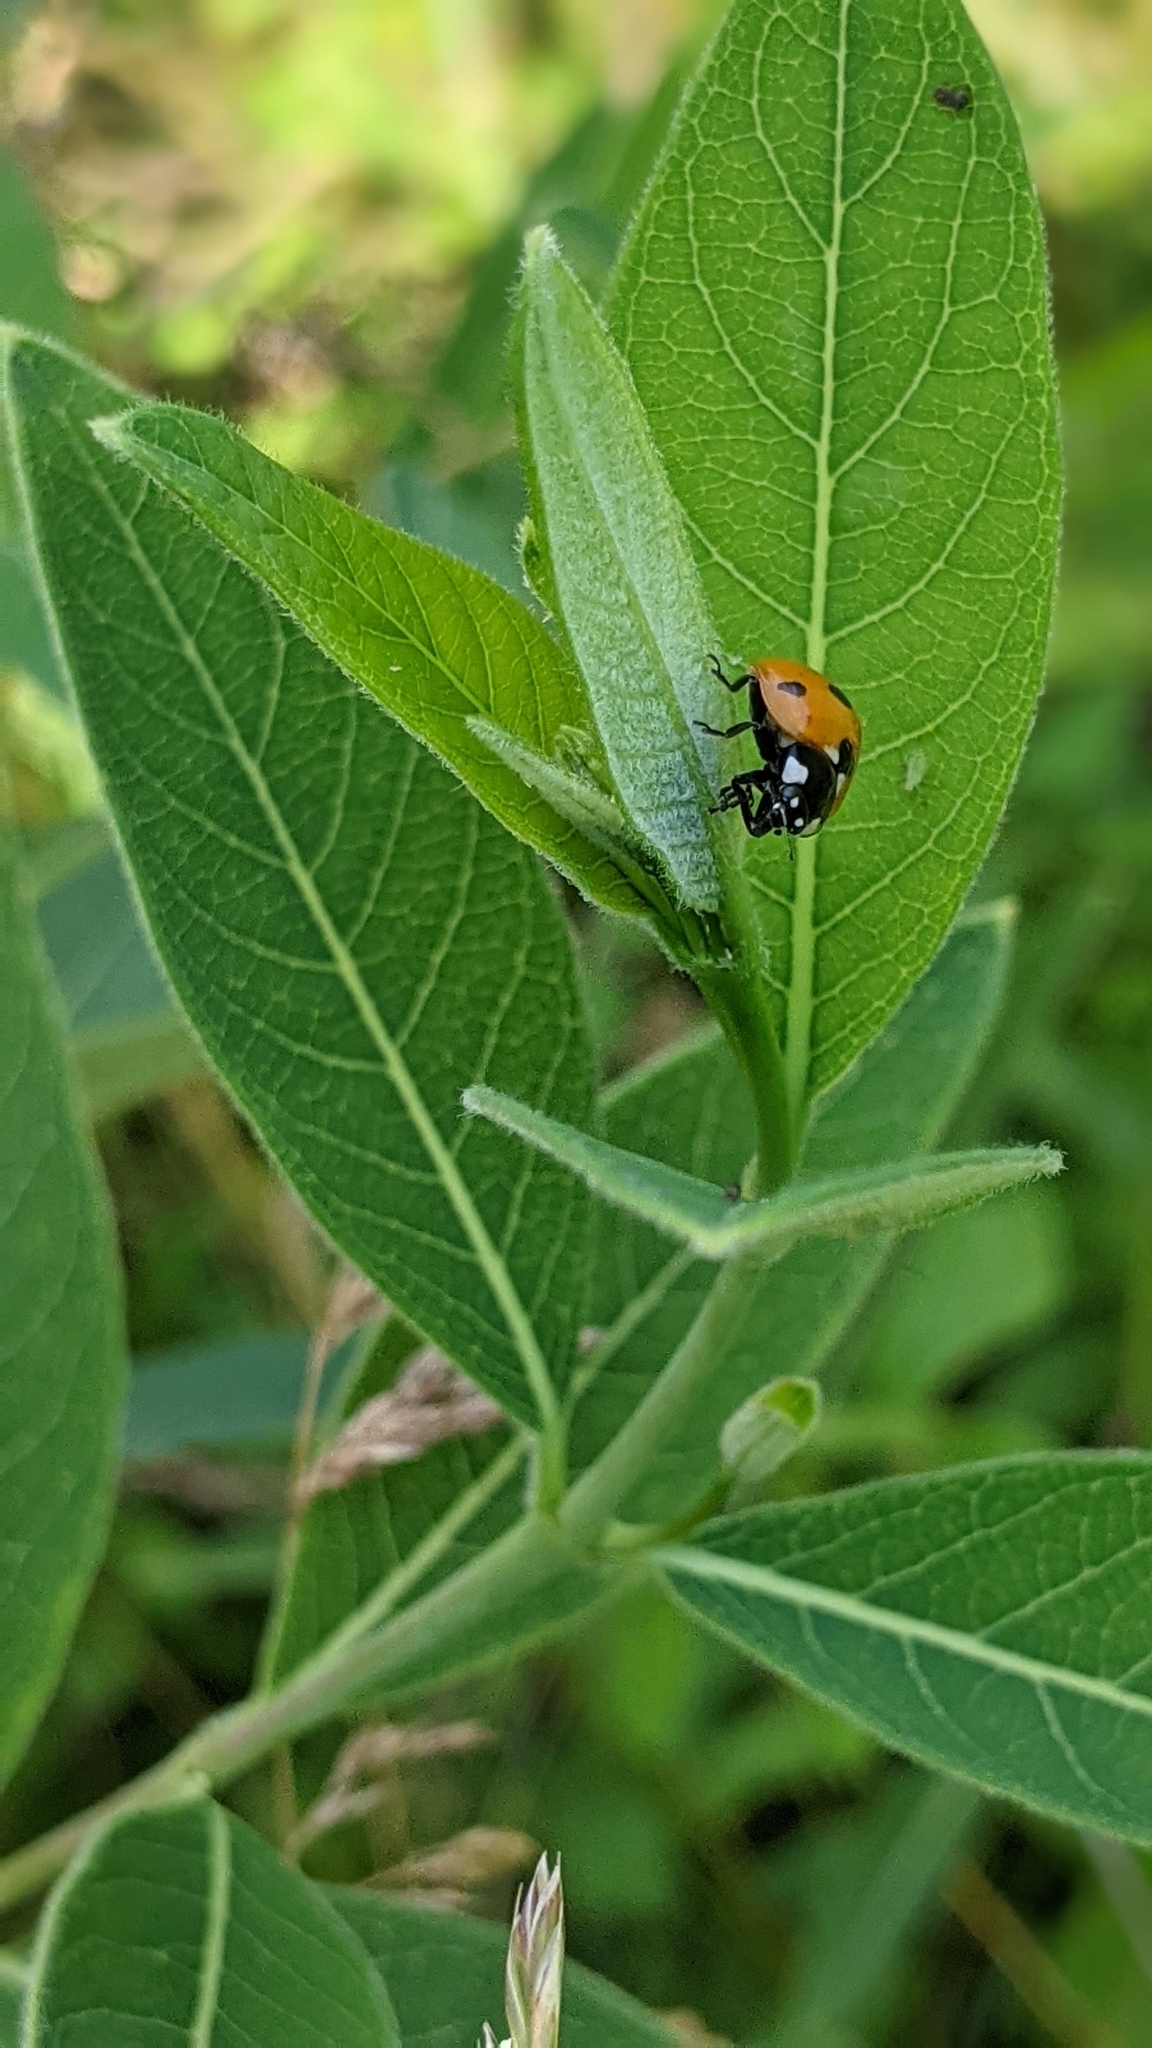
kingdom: Animalia
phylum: Arthropoda
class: Insecta
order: Coleoptera
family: Coccinellidae
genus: Coccinella
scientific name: Coccinella septempunctata
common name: Sevenspotted lady beetle
